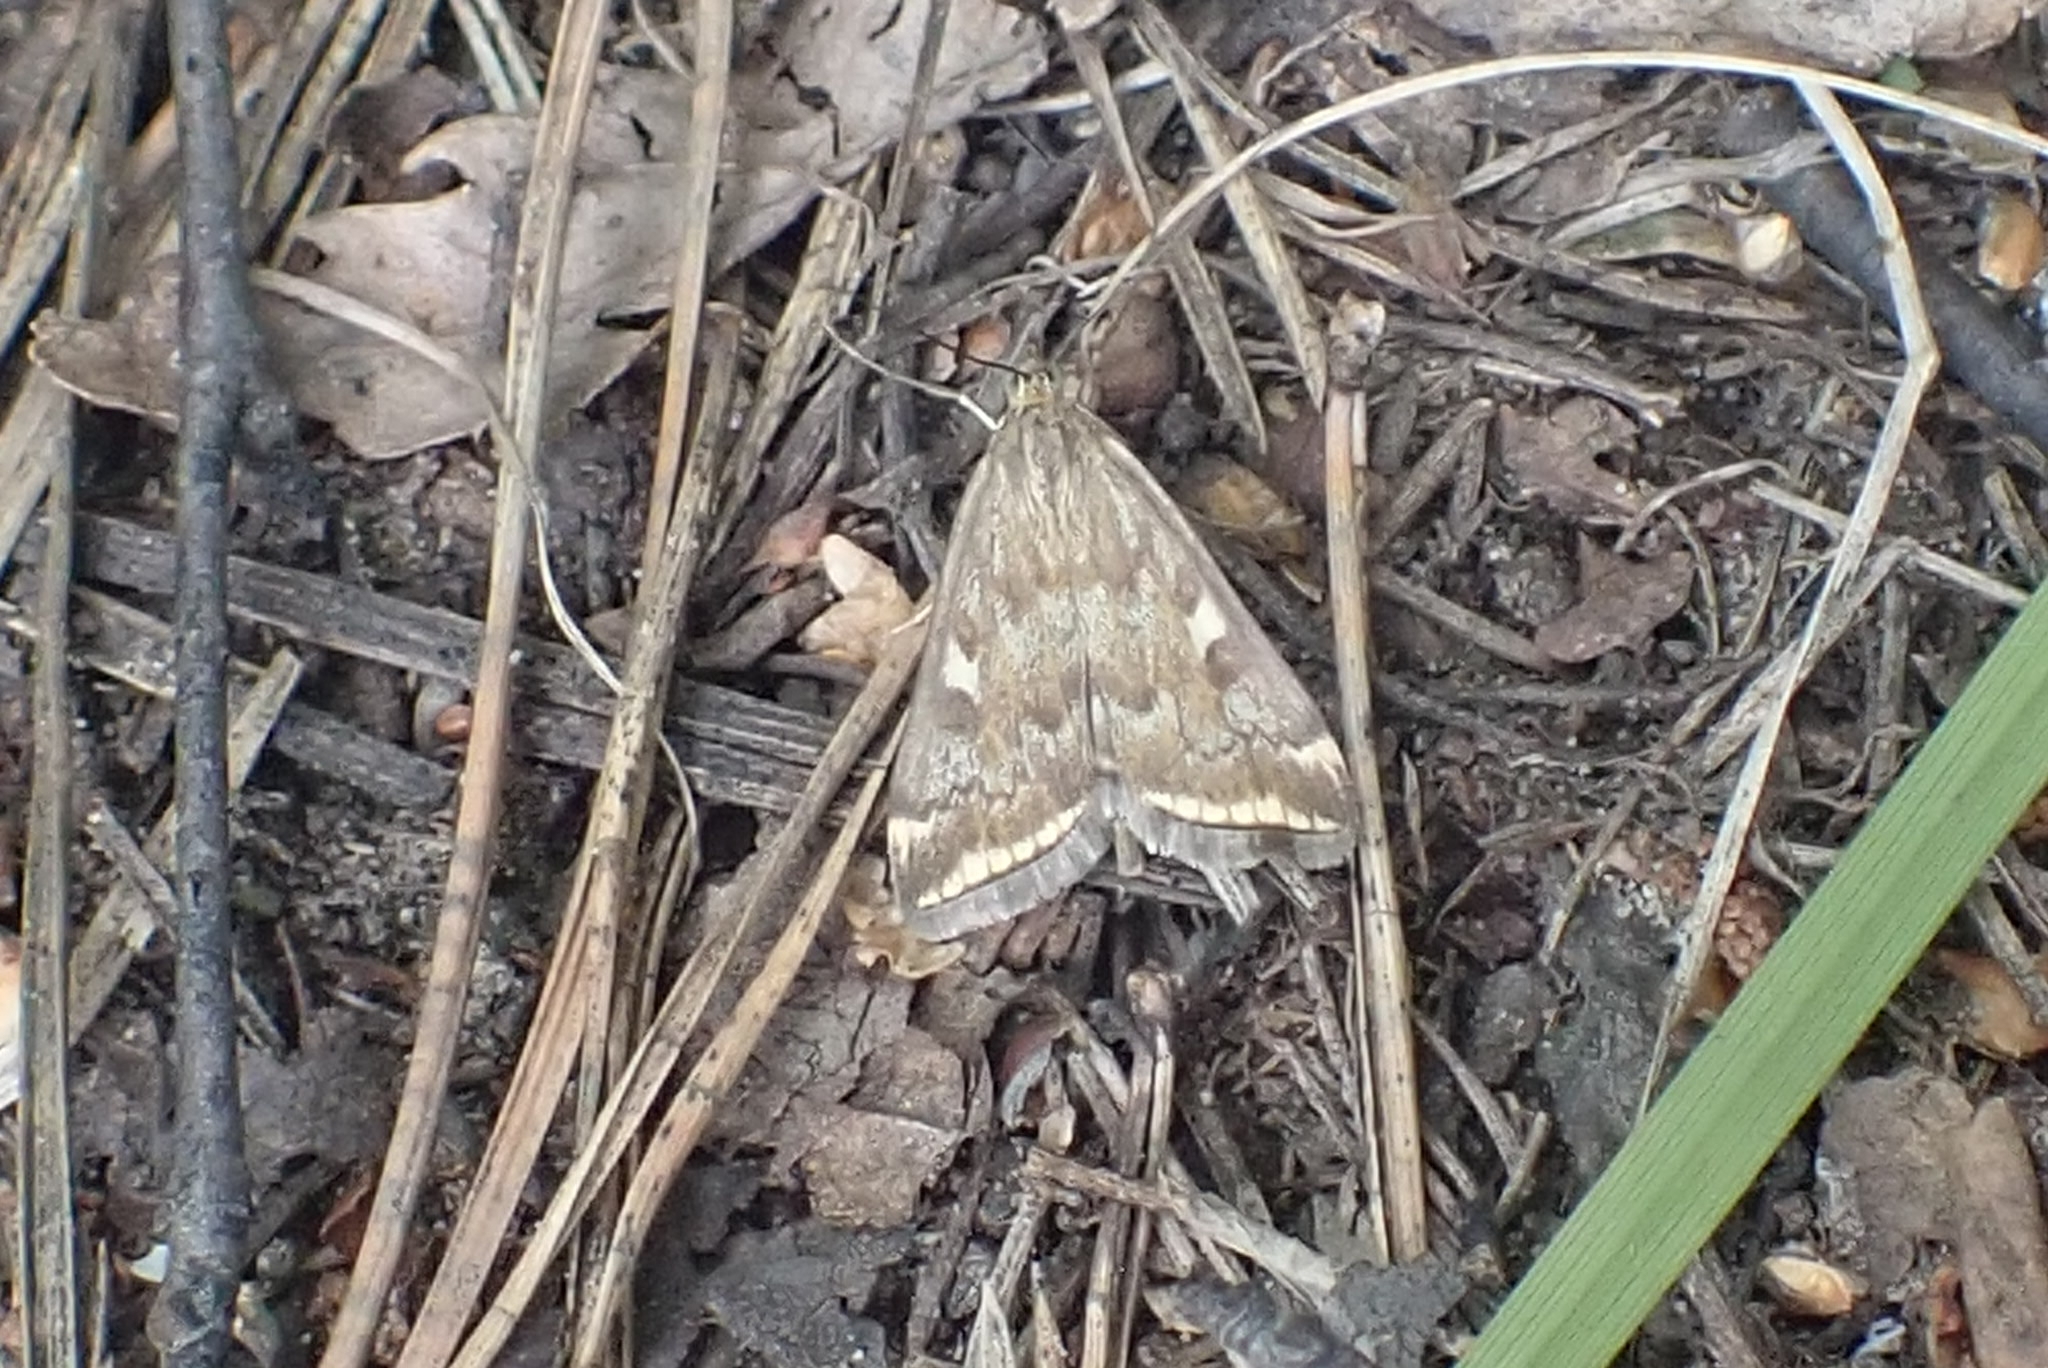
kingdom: Animalia
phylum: Arthropoda
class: Insecta
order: Lepidoptera
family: Crambidae
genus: Loxostege
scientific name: Loxostege sticticalis
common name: Crambid moth
